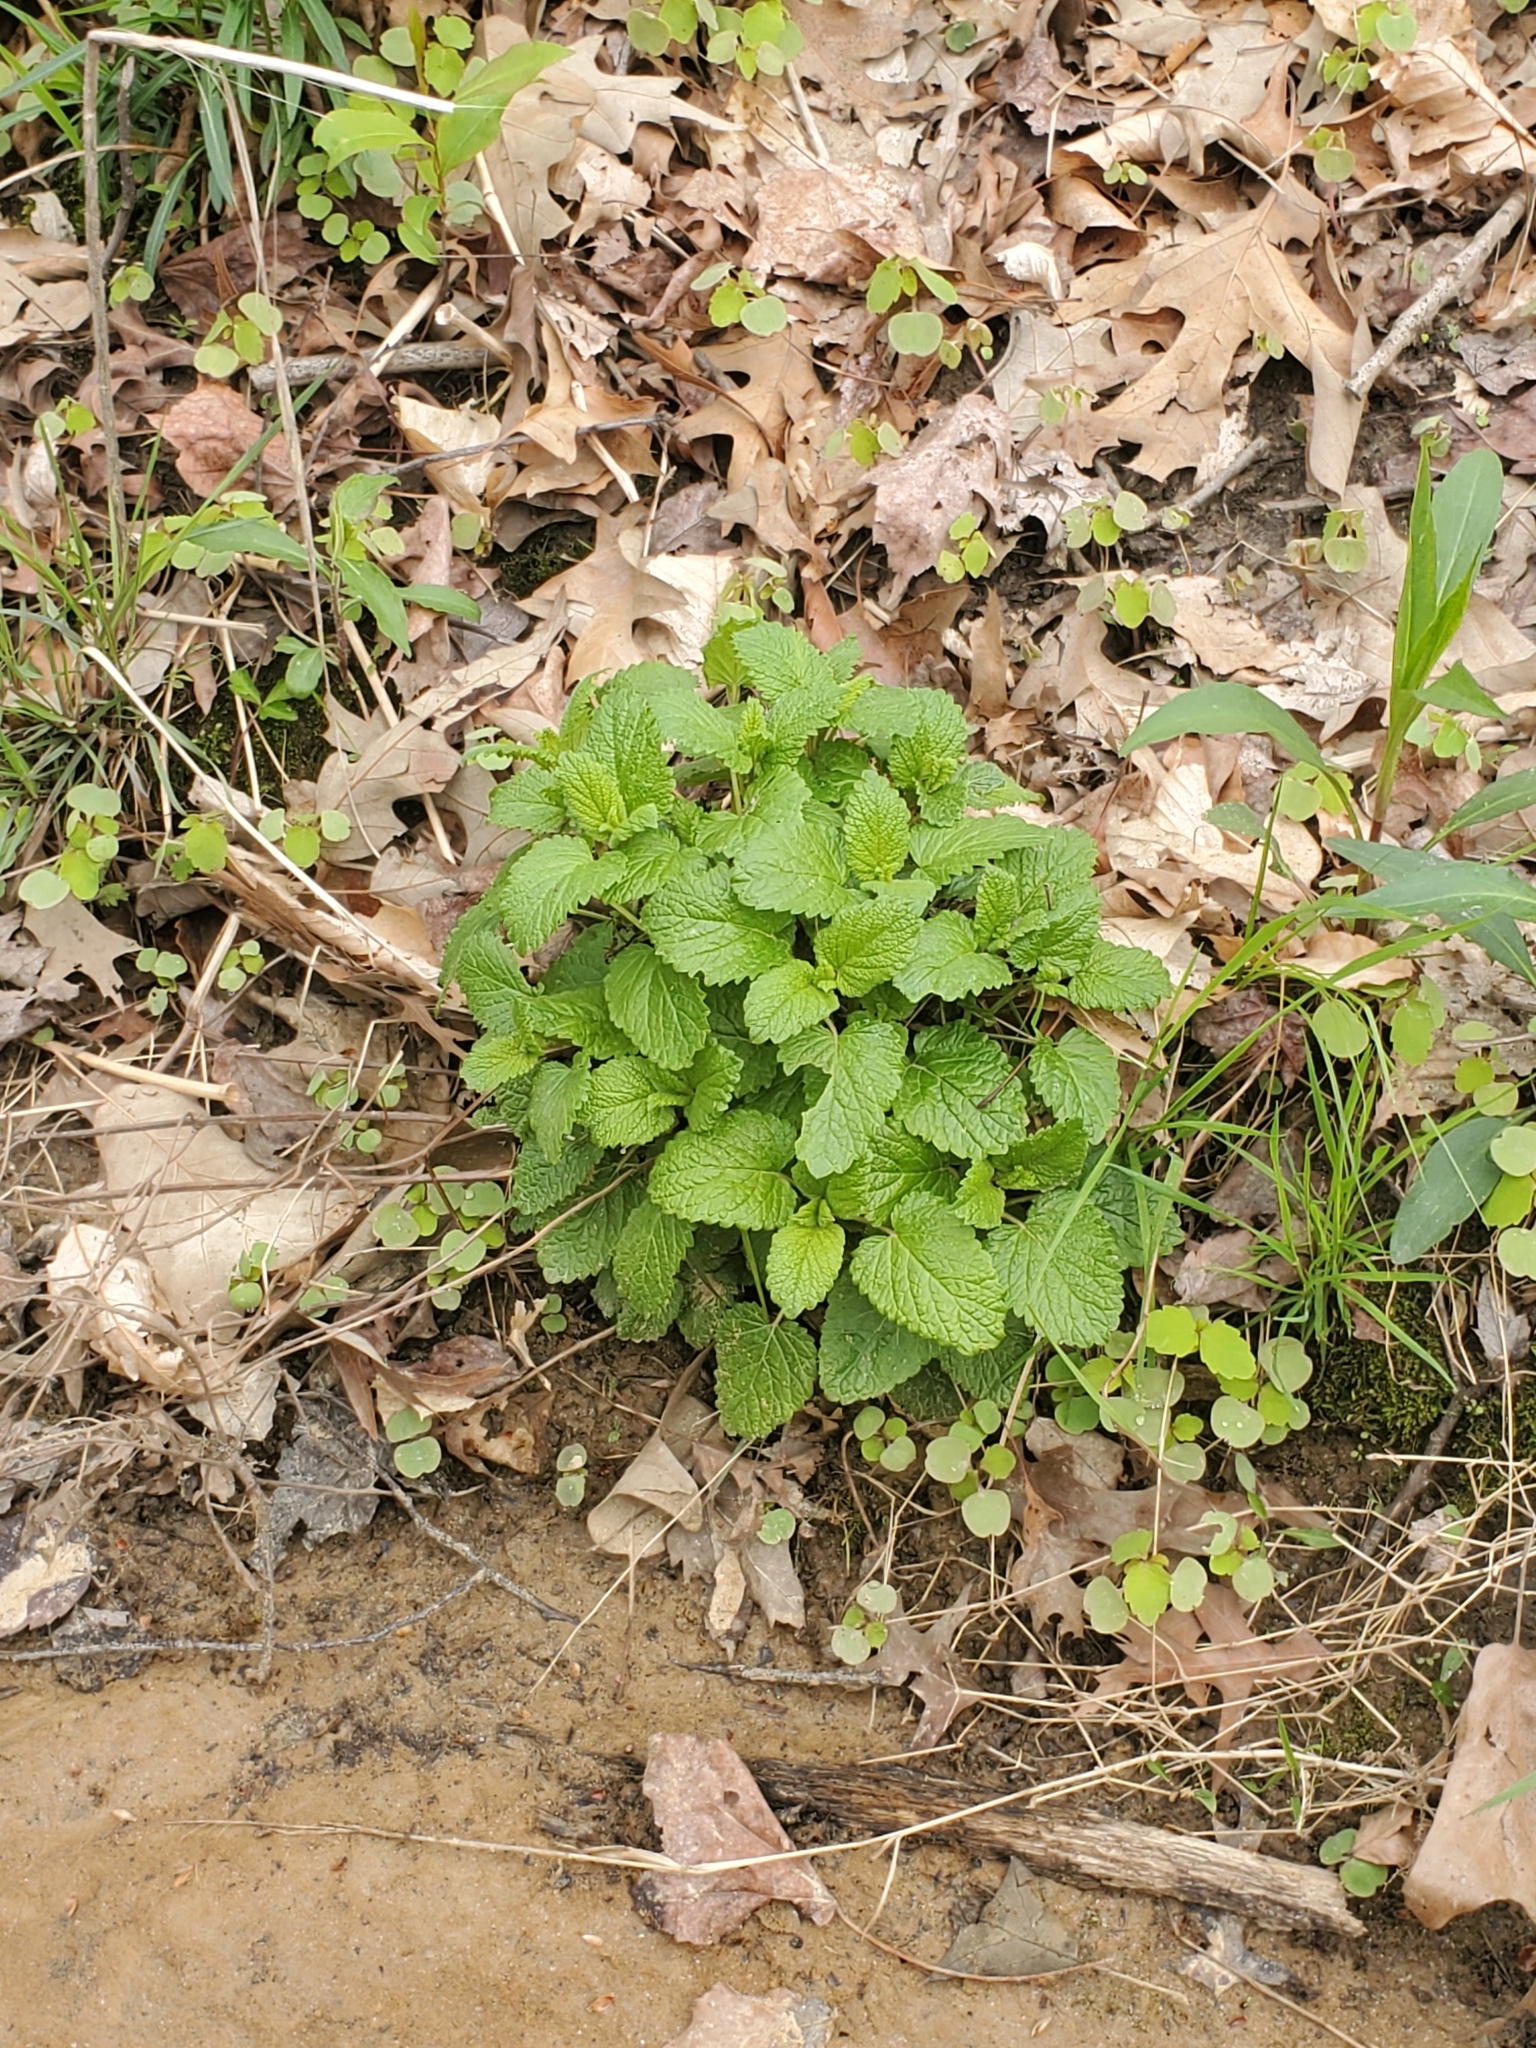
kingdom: Plantae
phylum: Tracheophyta
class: Magnoliopsida
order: Lamiales
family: Lamiaceae
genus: Melissa
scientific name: Melissa officinalis
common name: Balm
